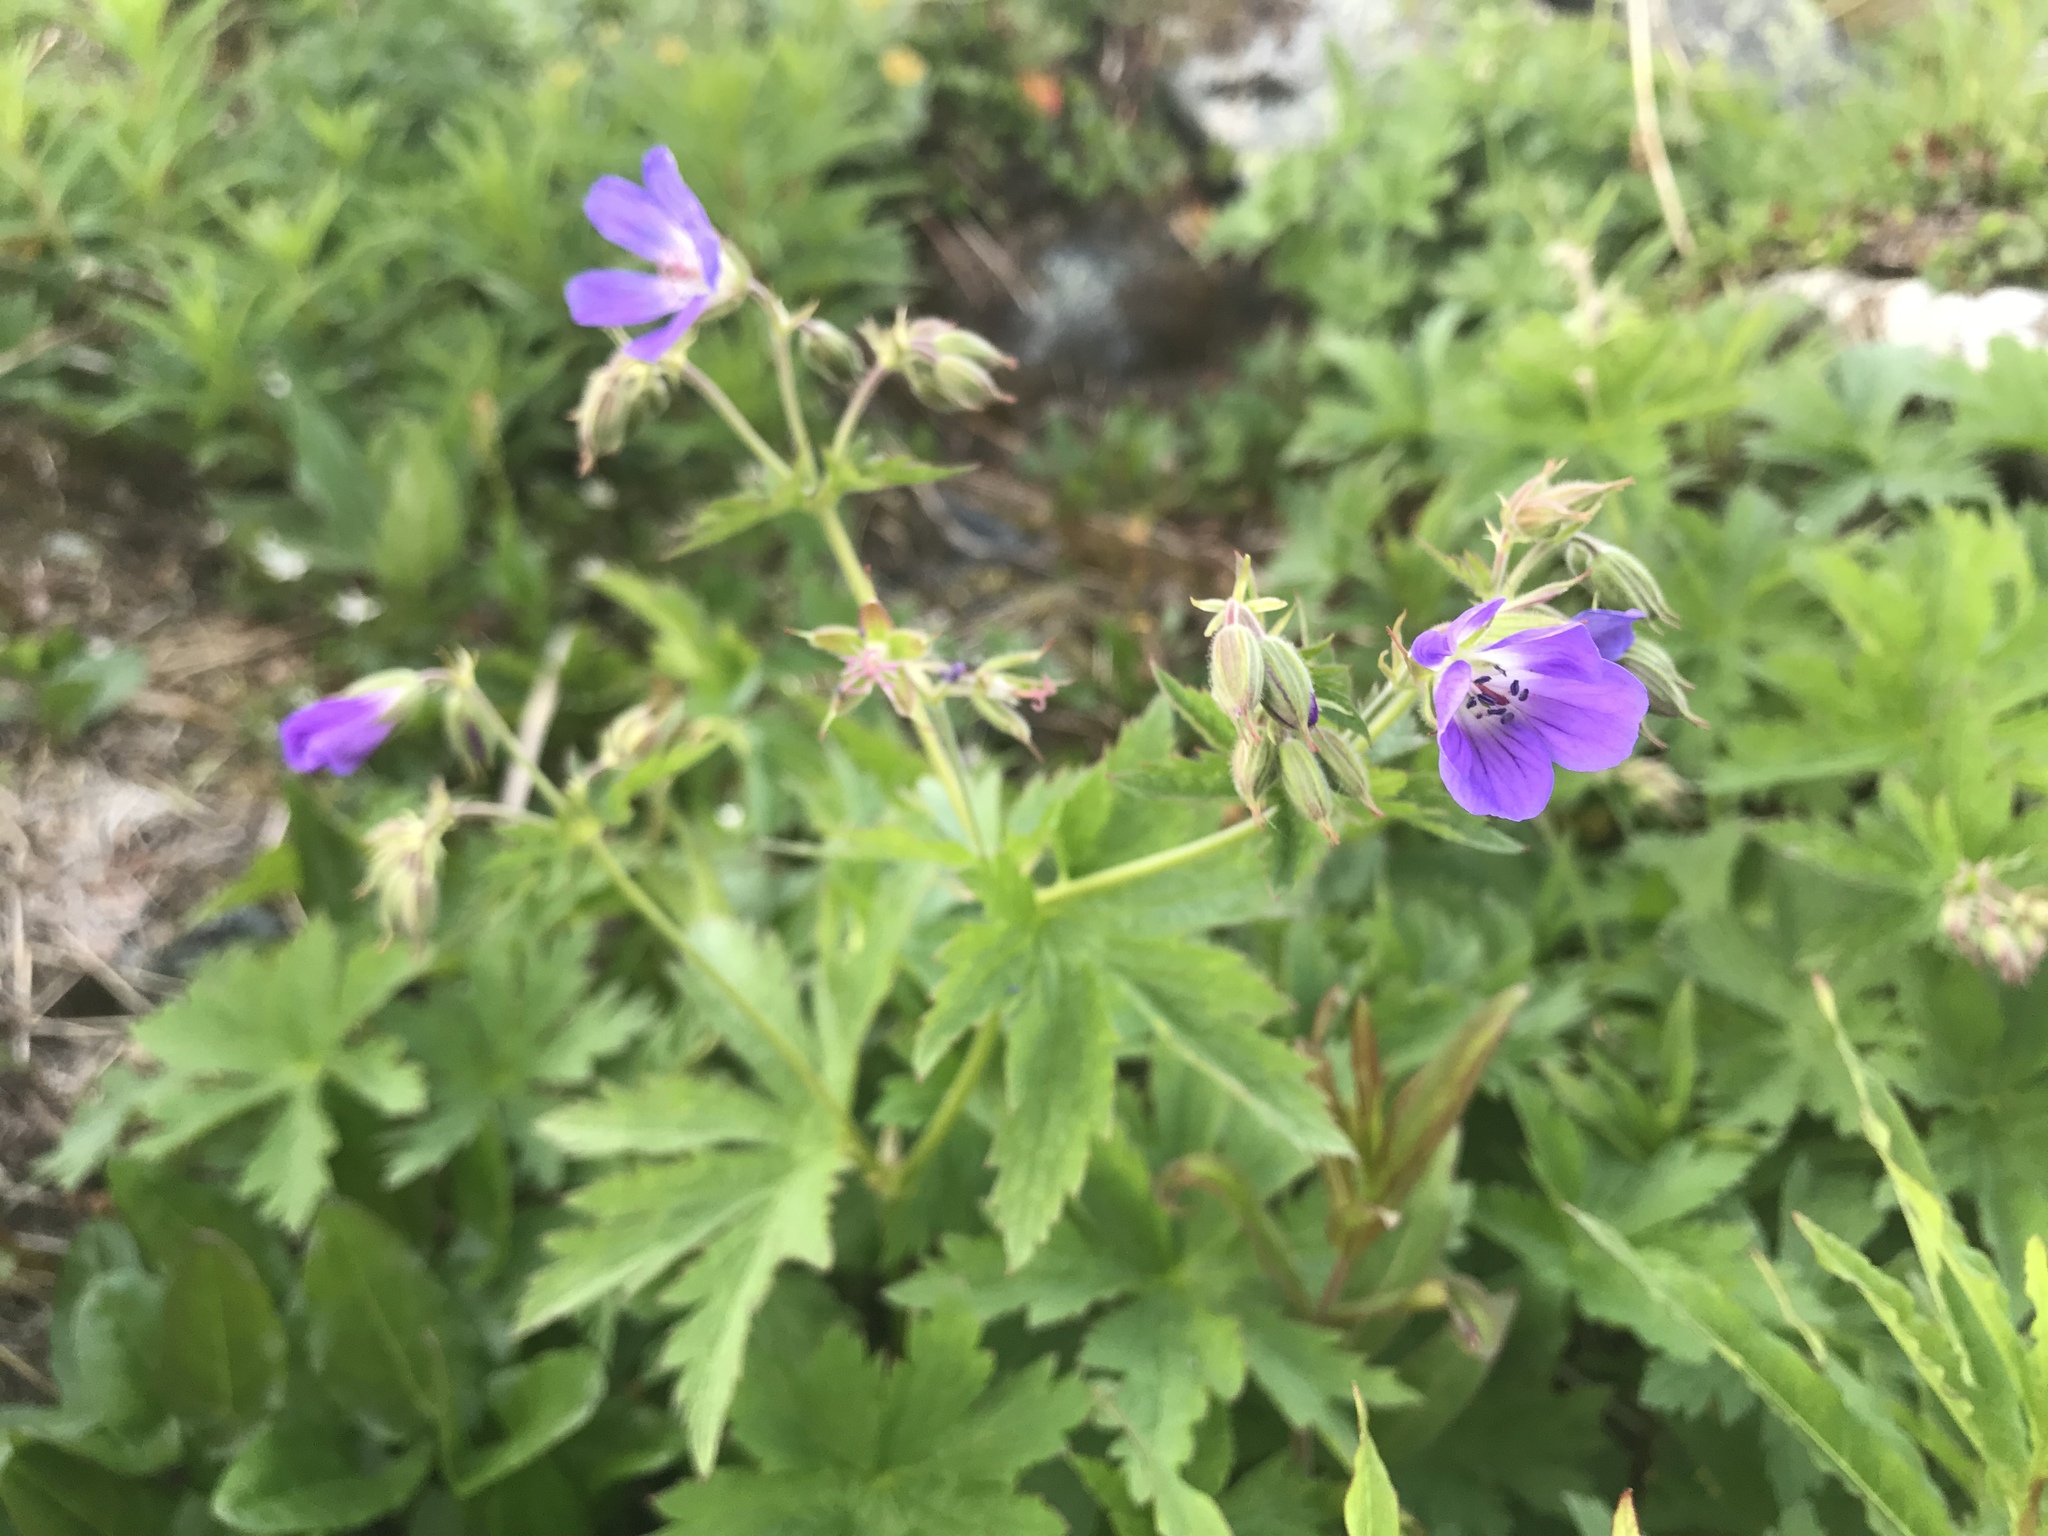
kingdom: Plantae
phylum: Tracheophyta
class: Magnoliopsida
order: Geraniales
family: Geraniaceae
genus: Geranium
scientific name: Geranium sylvaticum
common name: Wood crane's-bill
